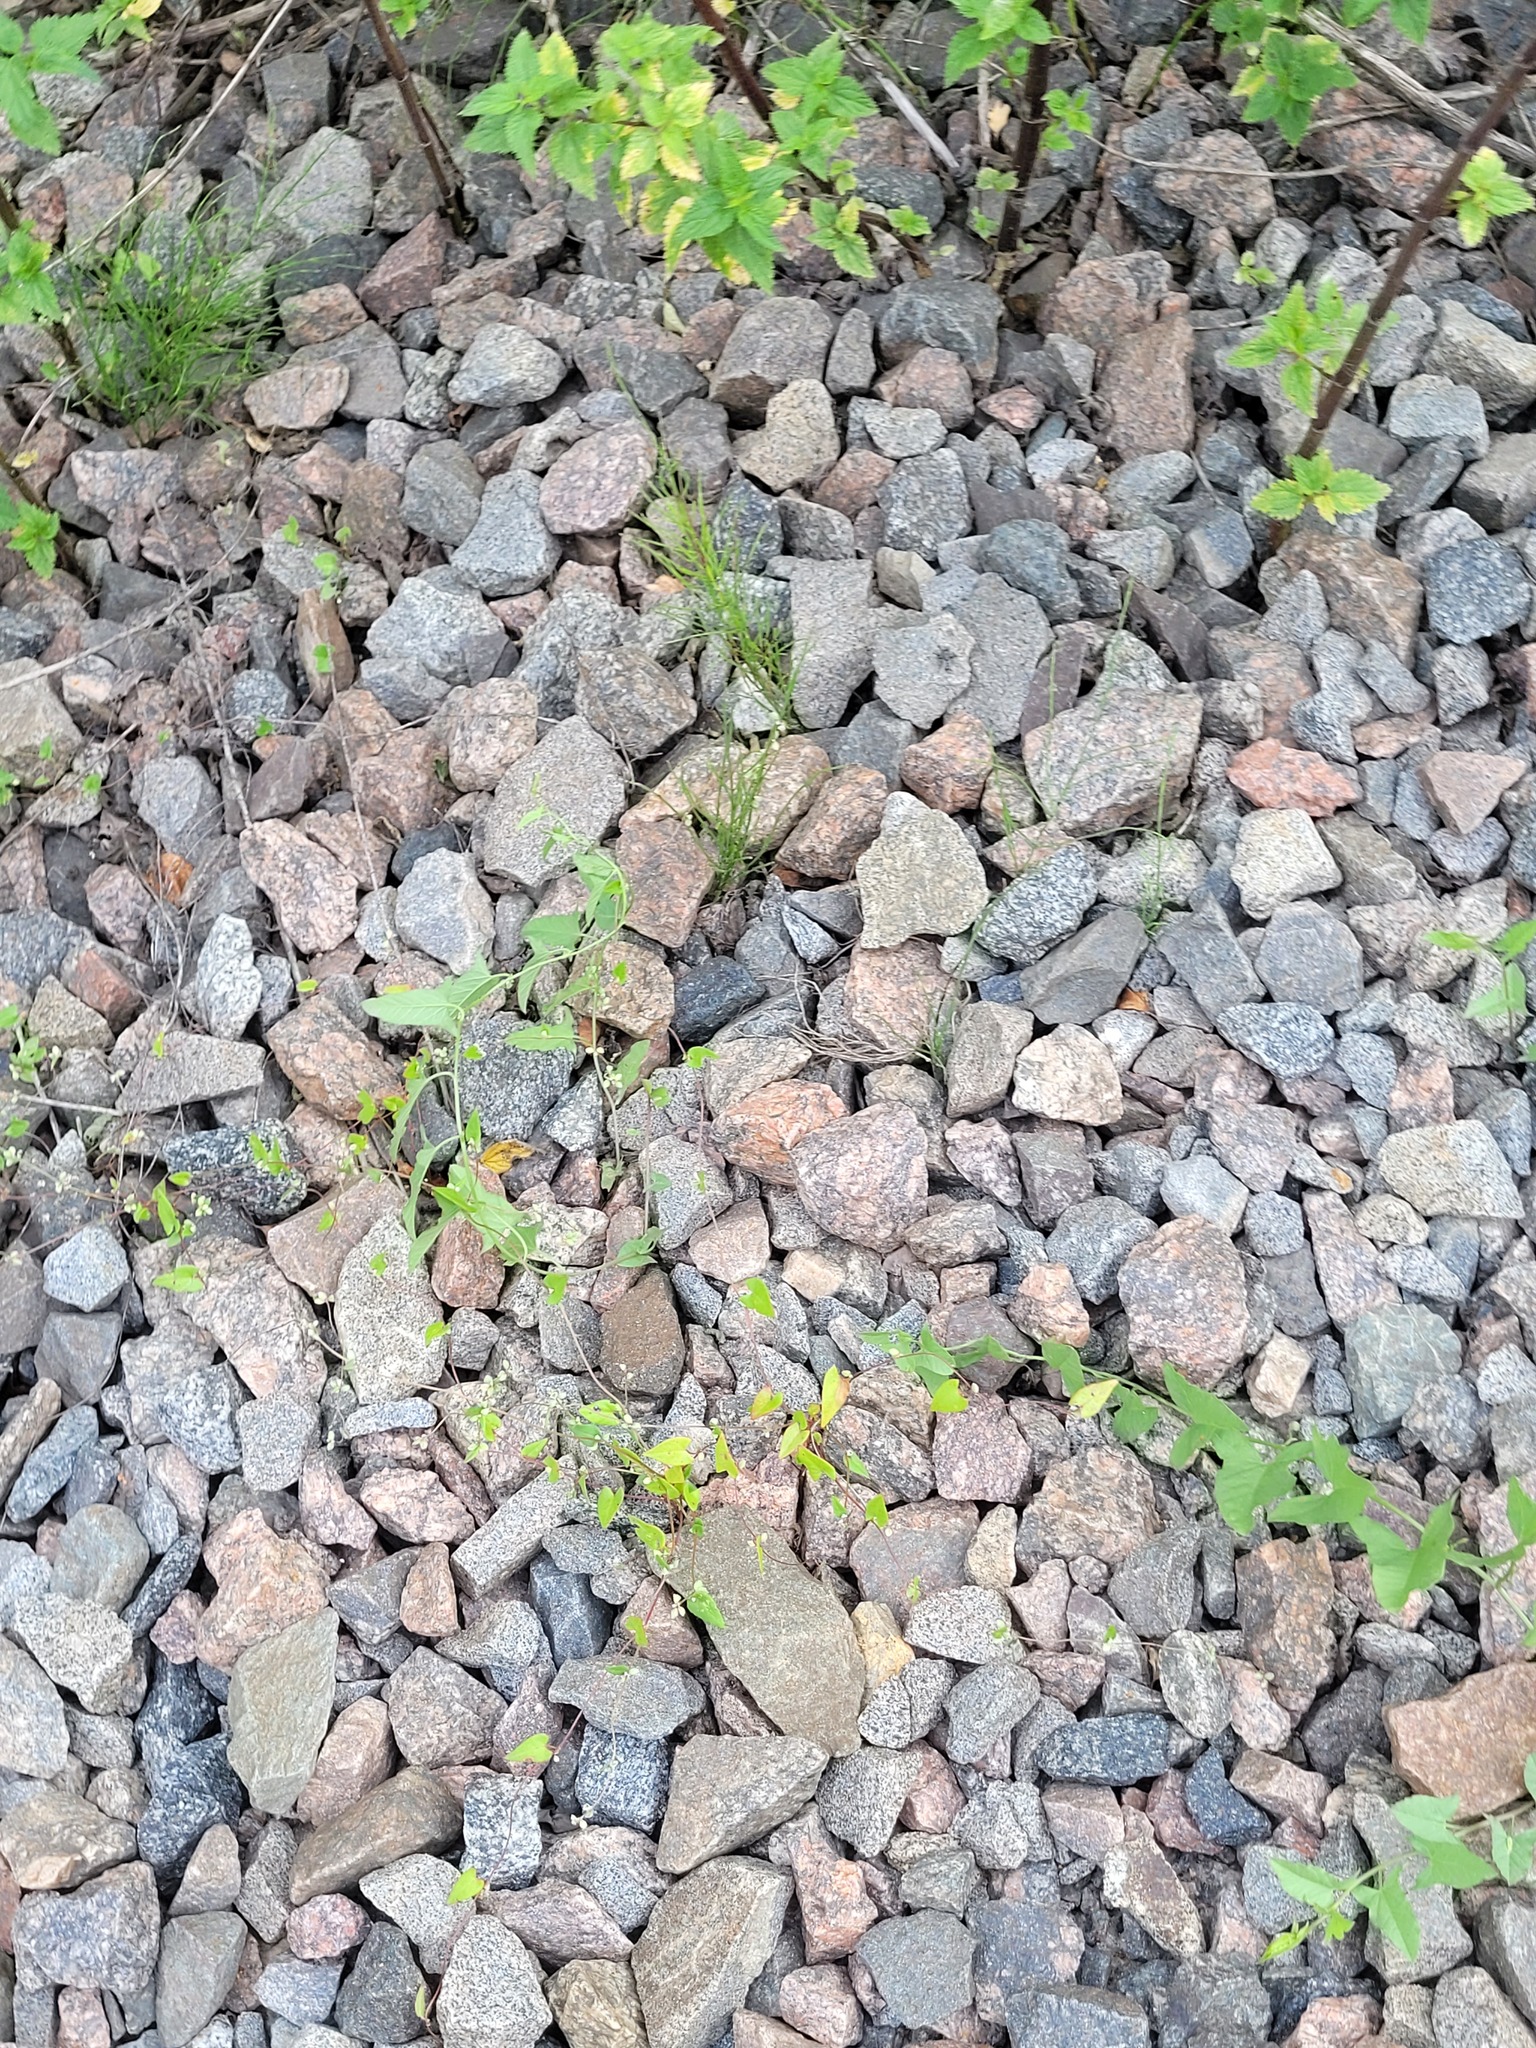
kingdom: Plantae
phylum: Tracheophyta
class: Magnoliopsida
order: Solanales
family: Convolvulaceae
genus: Convolvulus
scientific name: Convolvulus arvensis
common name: Field bindweed
